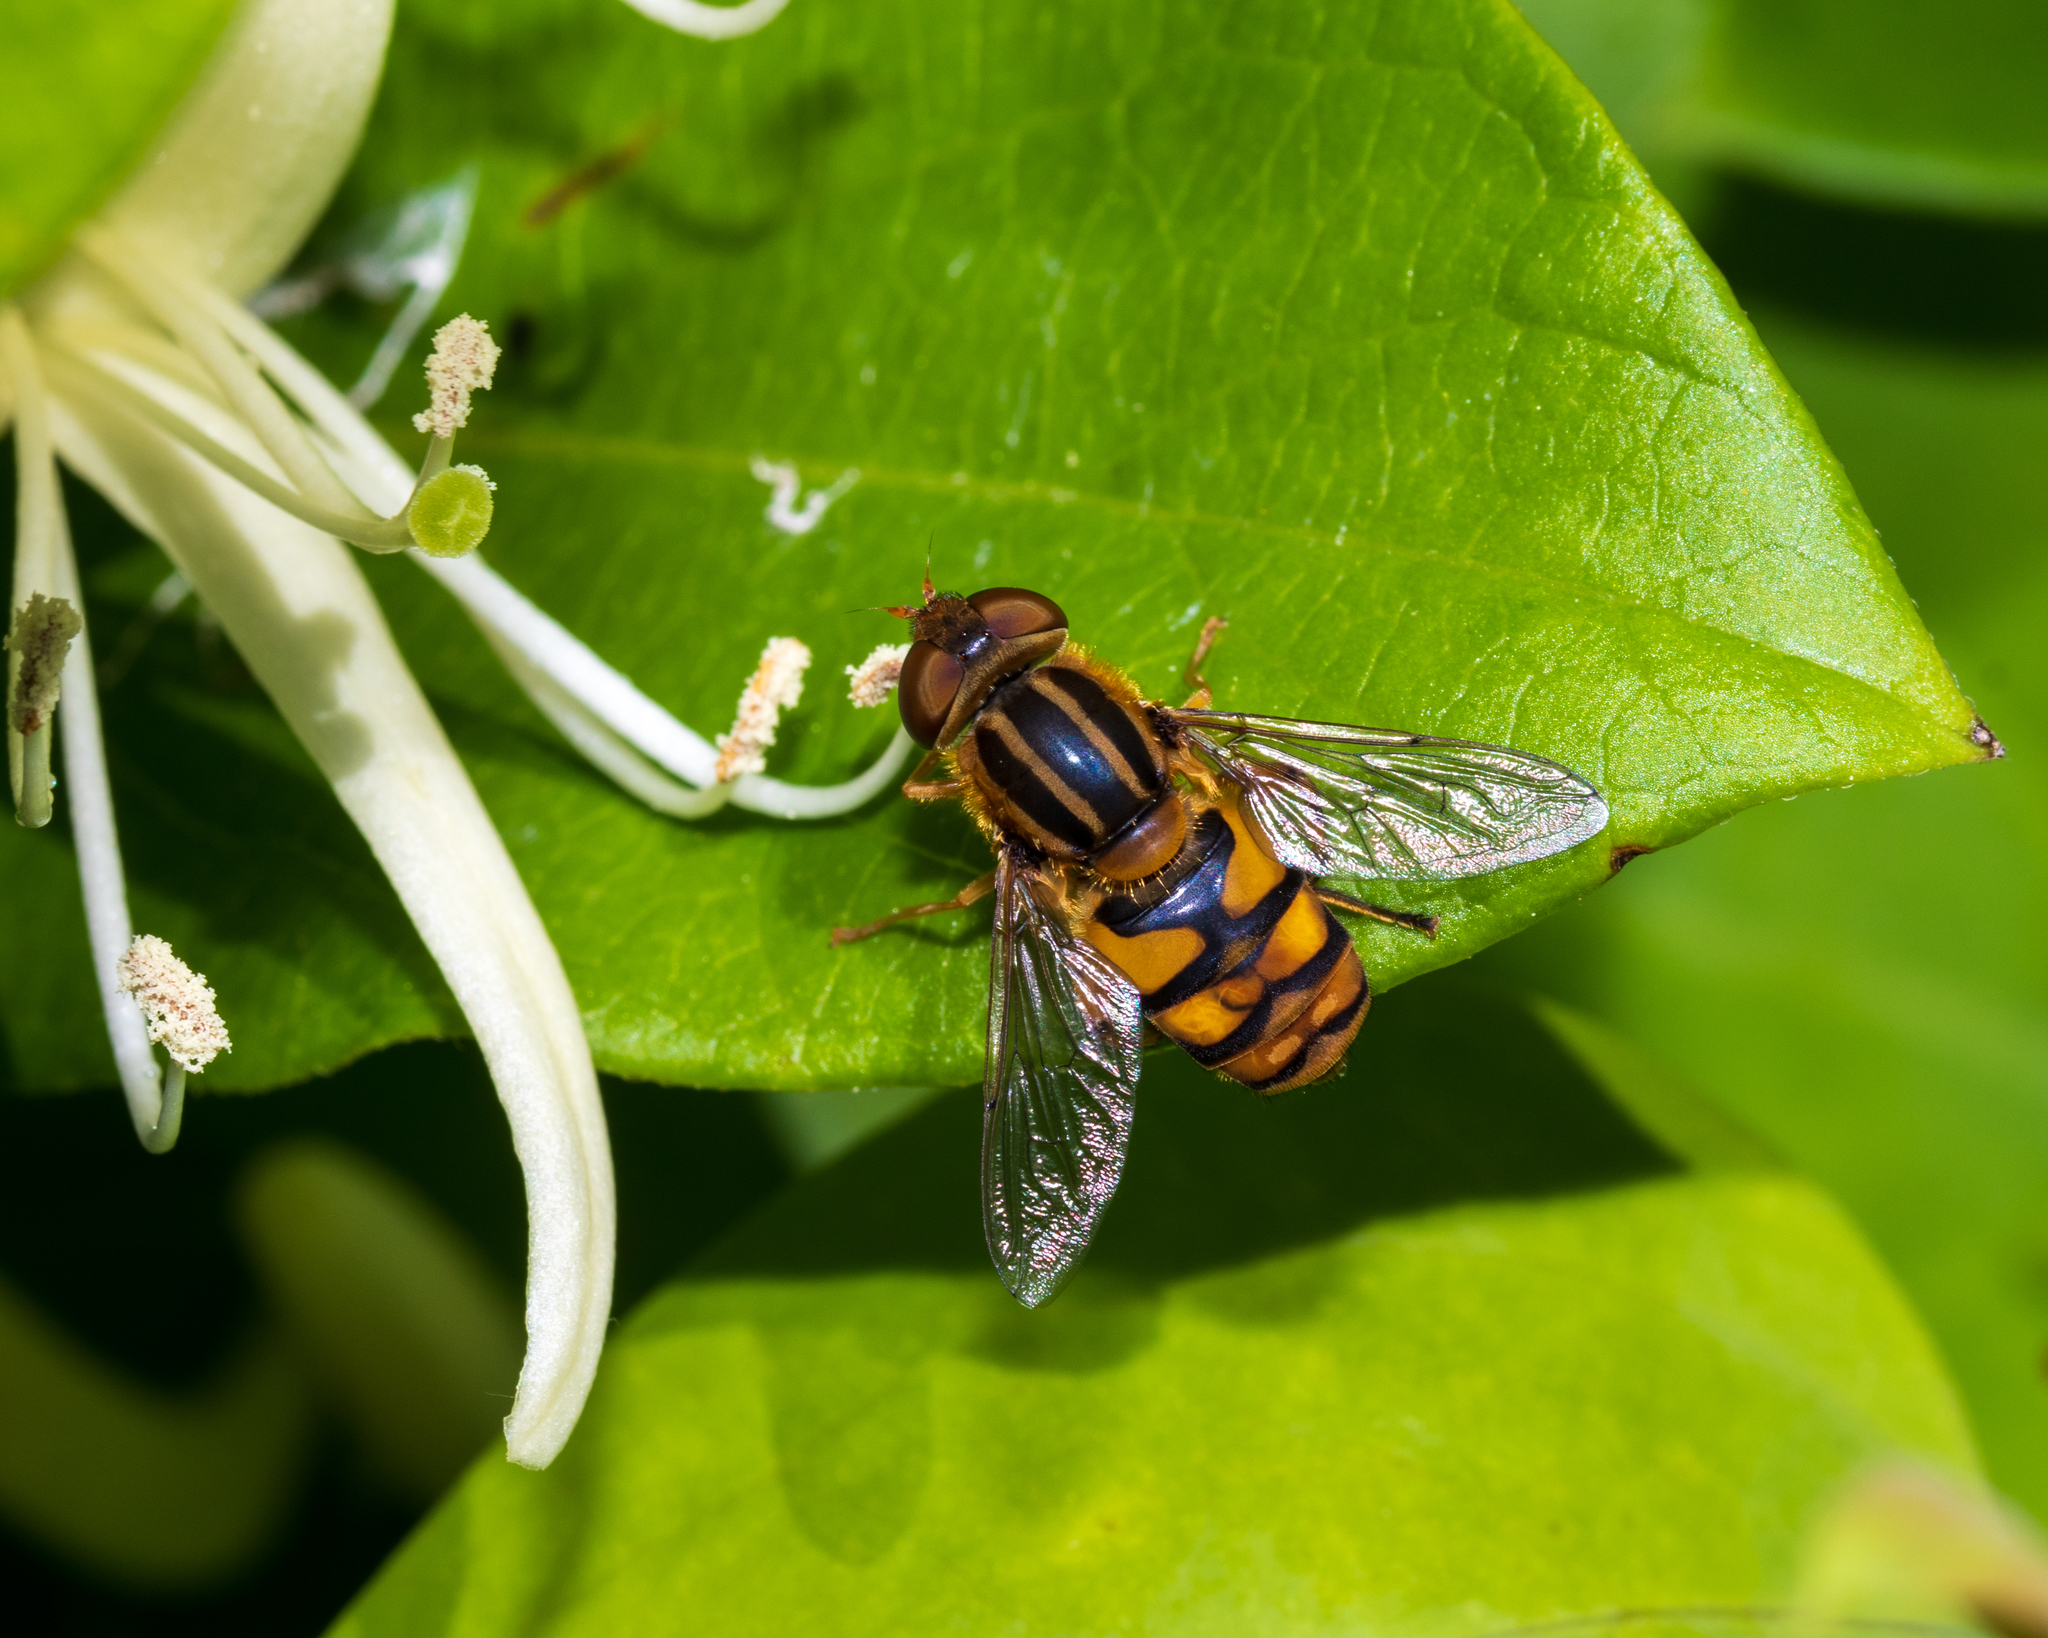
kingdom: Animalia
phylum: Arthropoda
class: Insecta
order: Diptera
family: Syrphidae
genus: Helophilus
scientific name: Helophilus fasciatus
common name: Narrow-headed marsh fly
